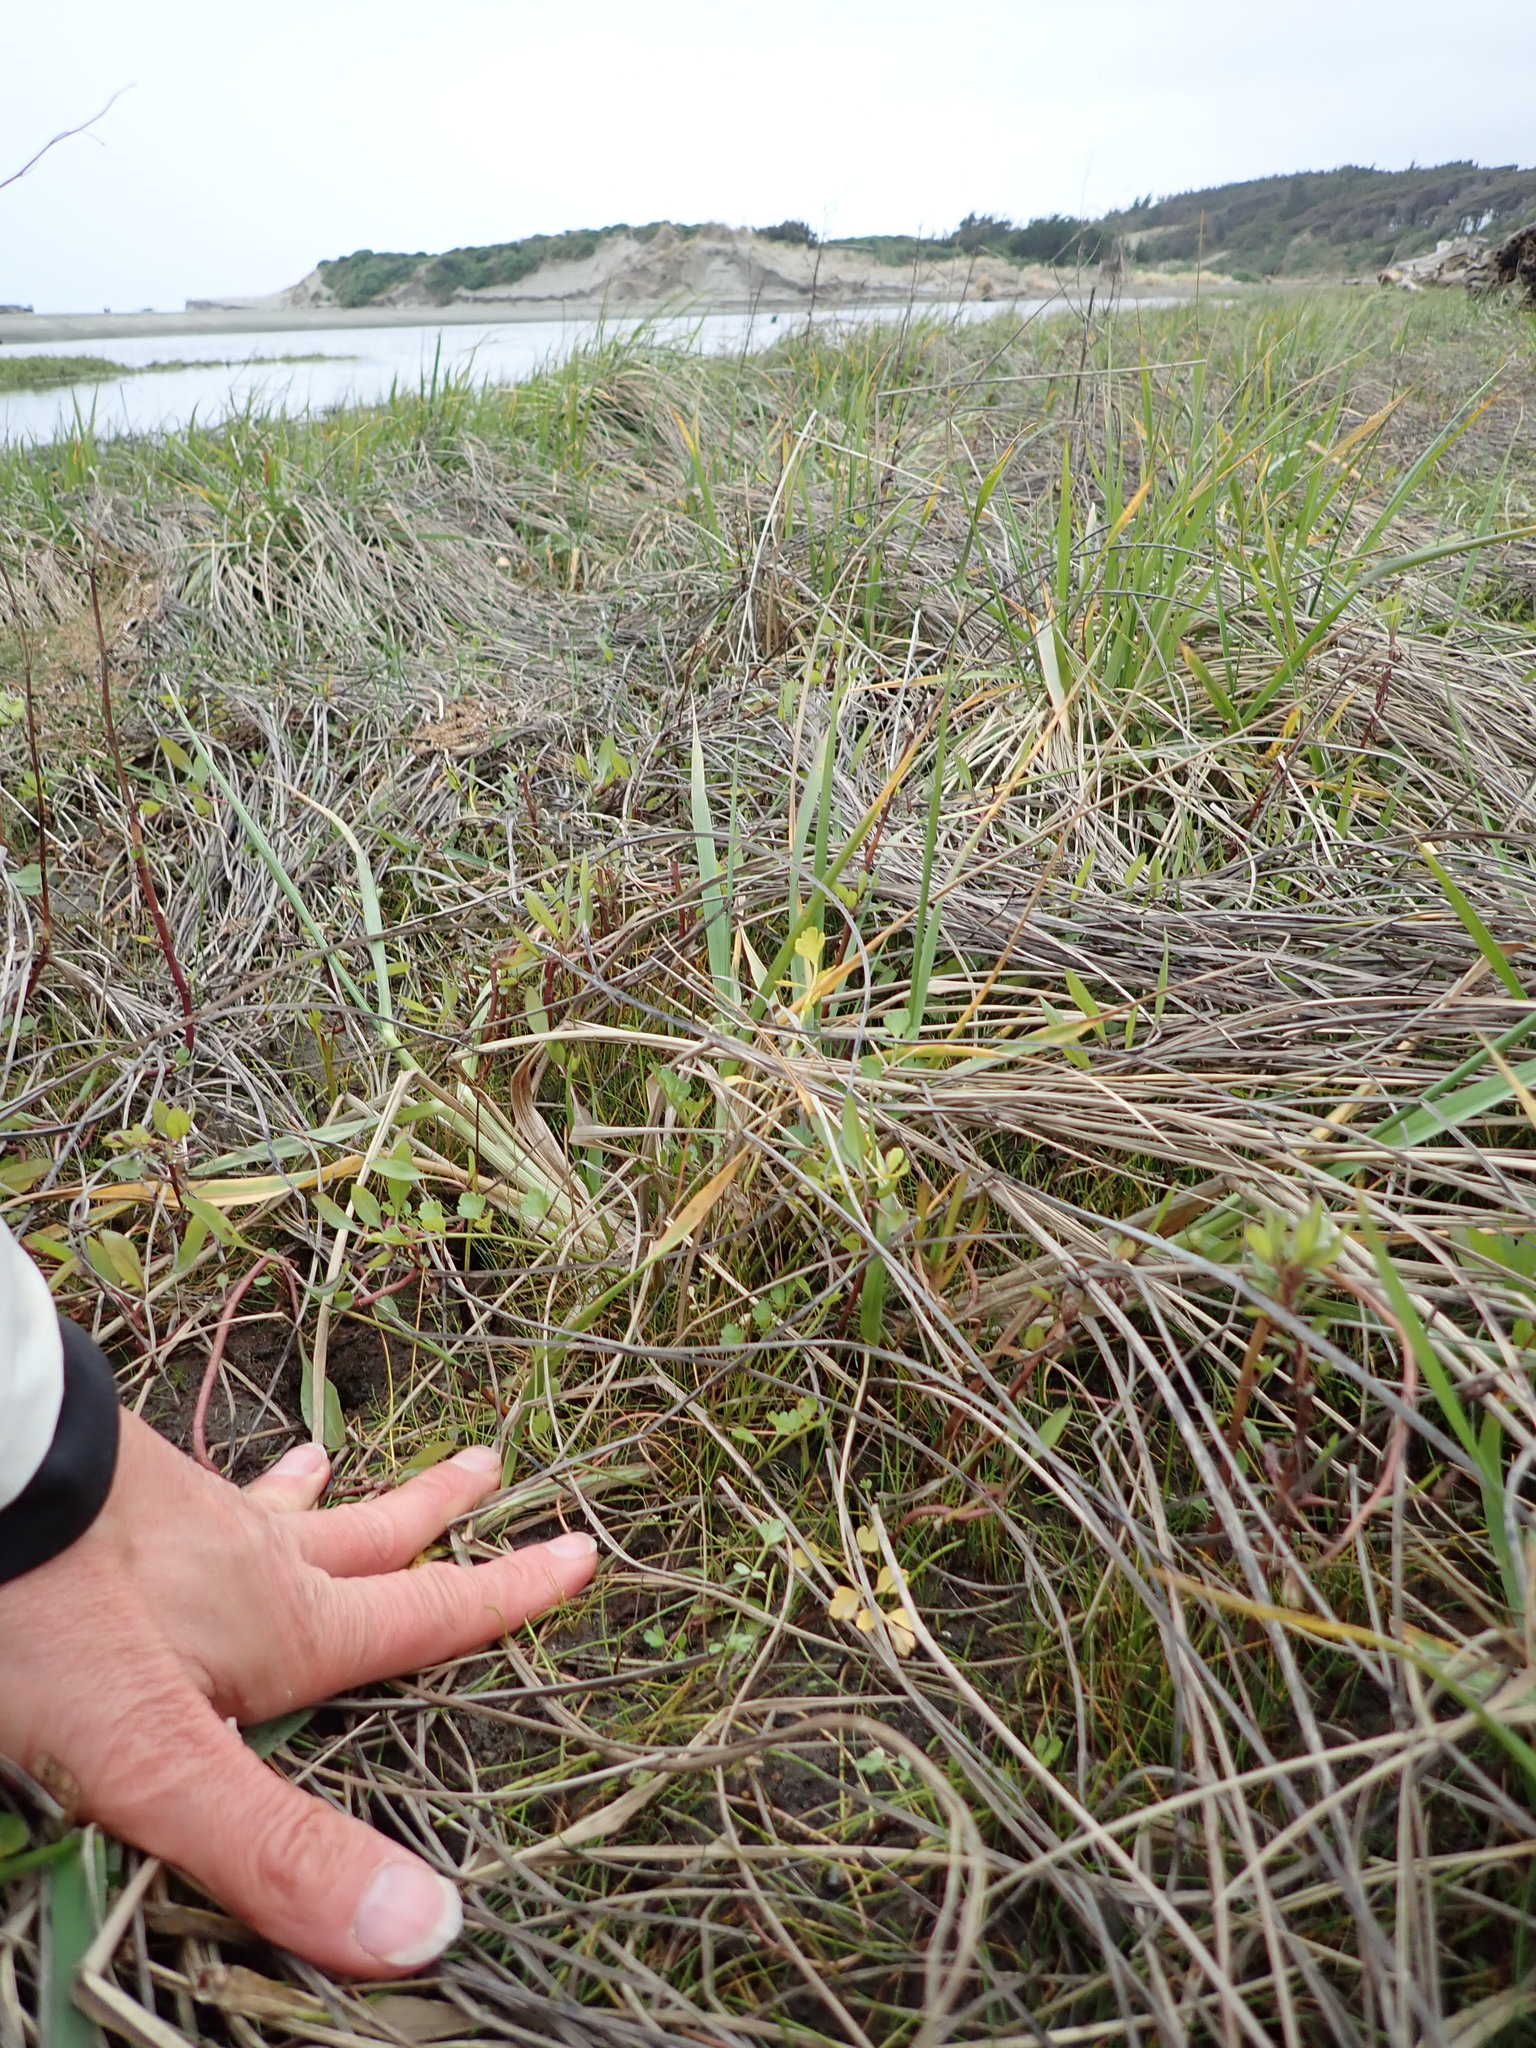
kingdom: Plantae
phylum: Tracheophyta
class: Magnoliopsida
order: Apiales
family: Apiaceae
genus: Apium
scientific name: Apium prostratum
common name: Prostrate marshwort
